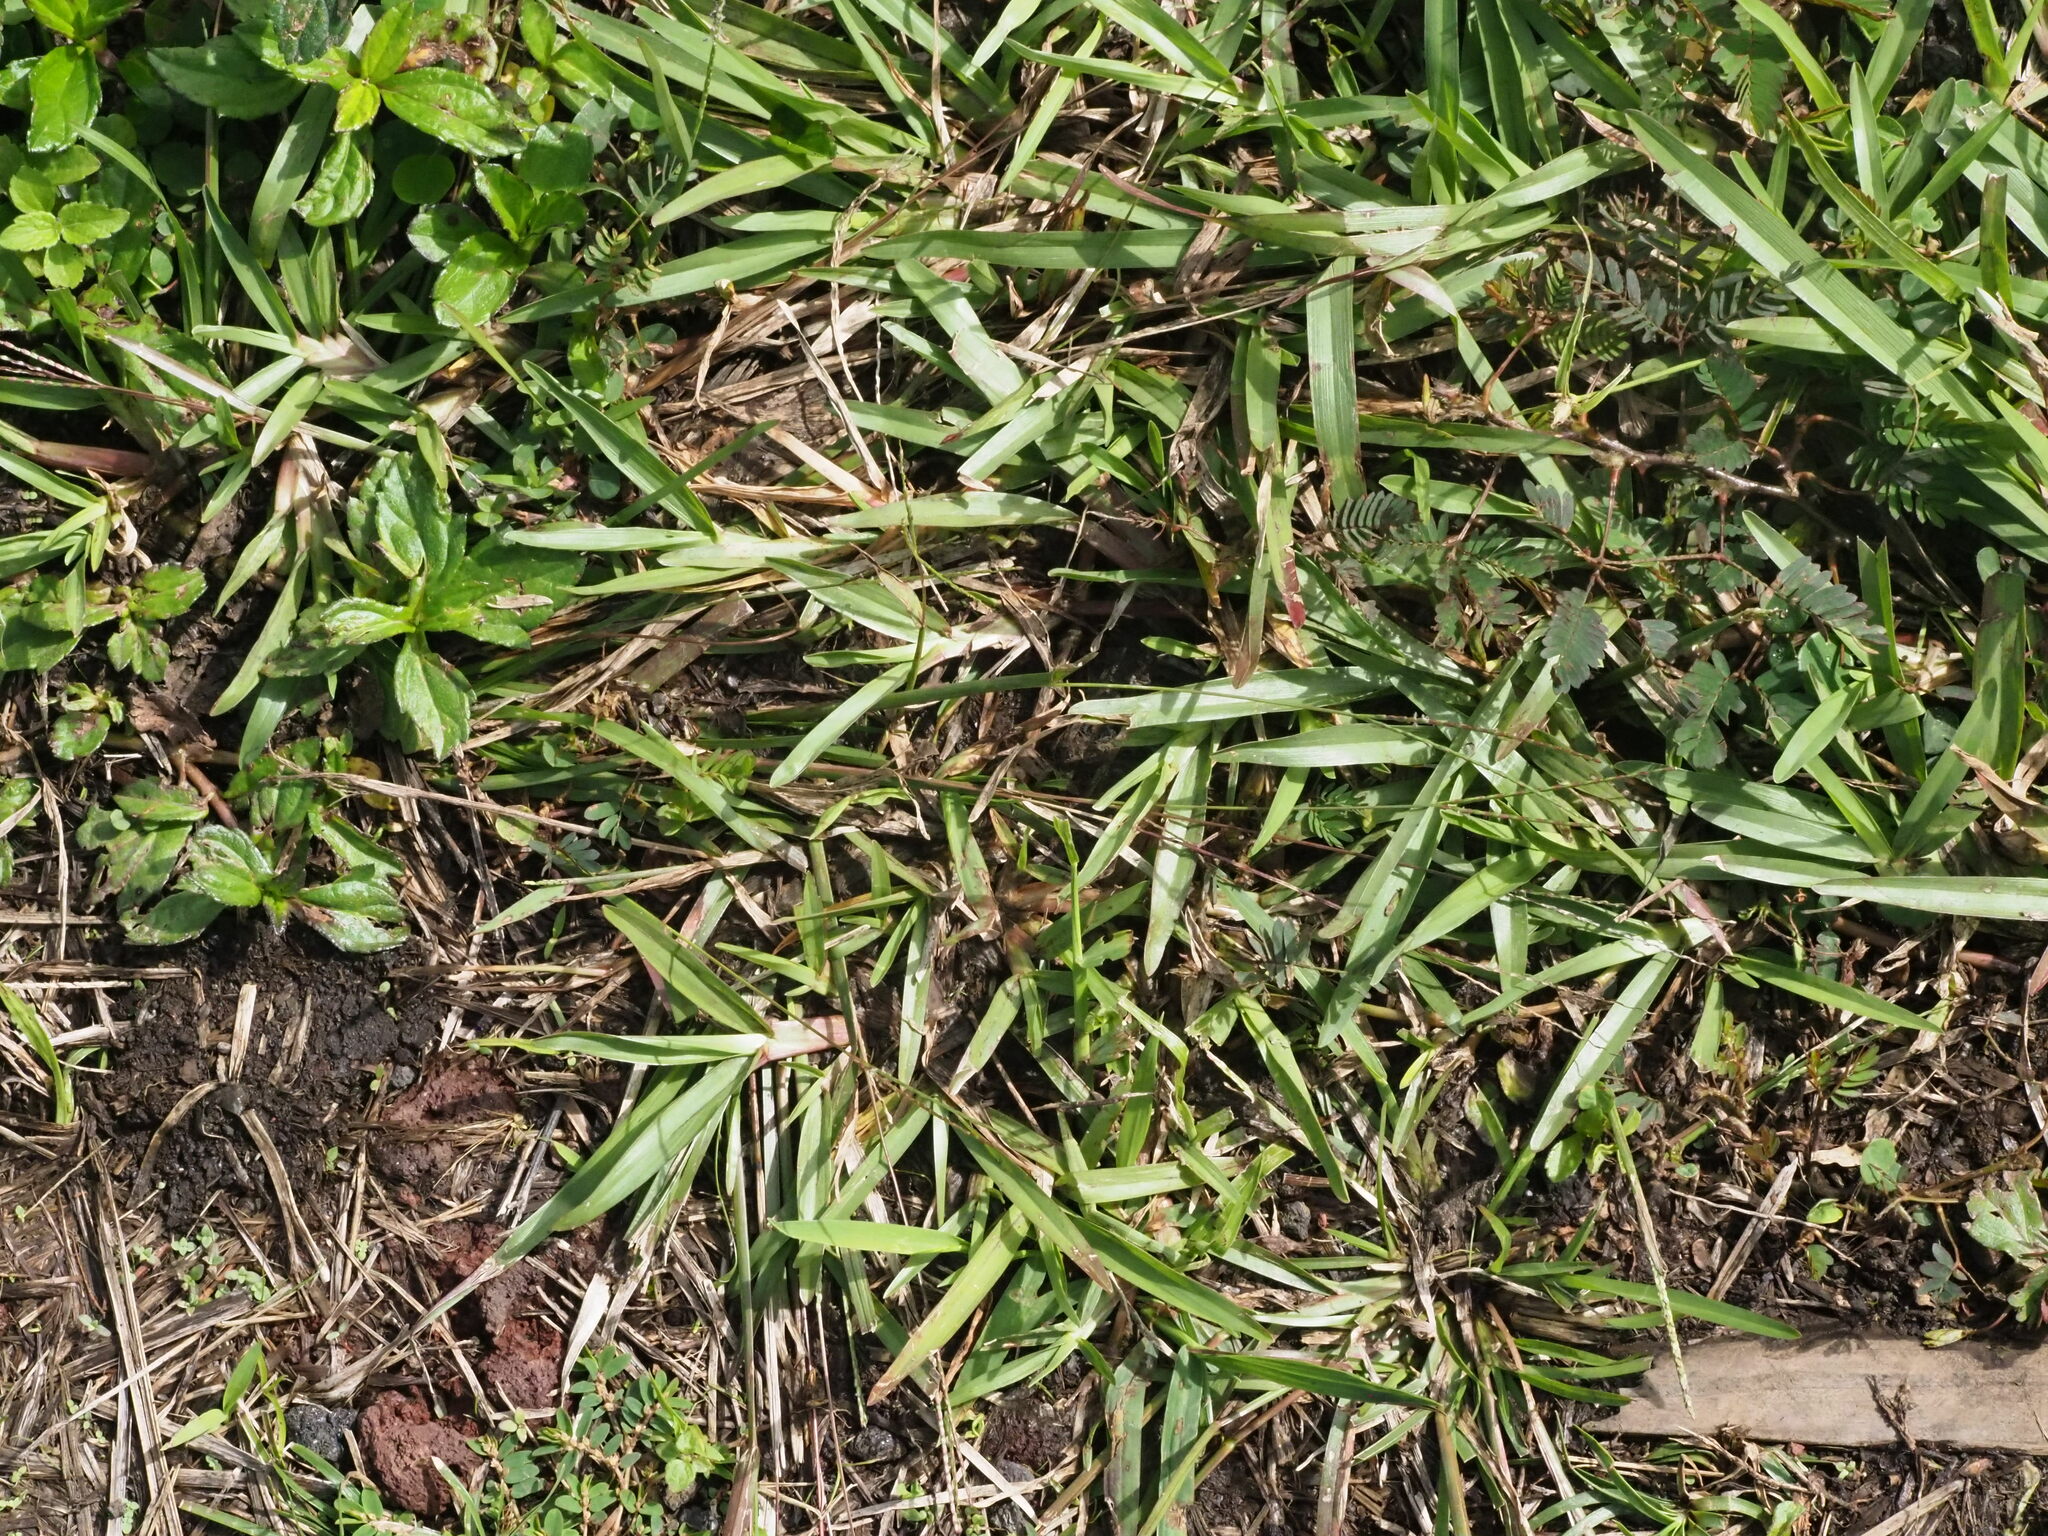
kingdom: Plantae
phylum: Tracheophyta
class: Liliopsida
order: Poales
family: Poaceae
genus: Axonopus
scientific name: Axonopus fissifolius
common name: Common carpetgrass
